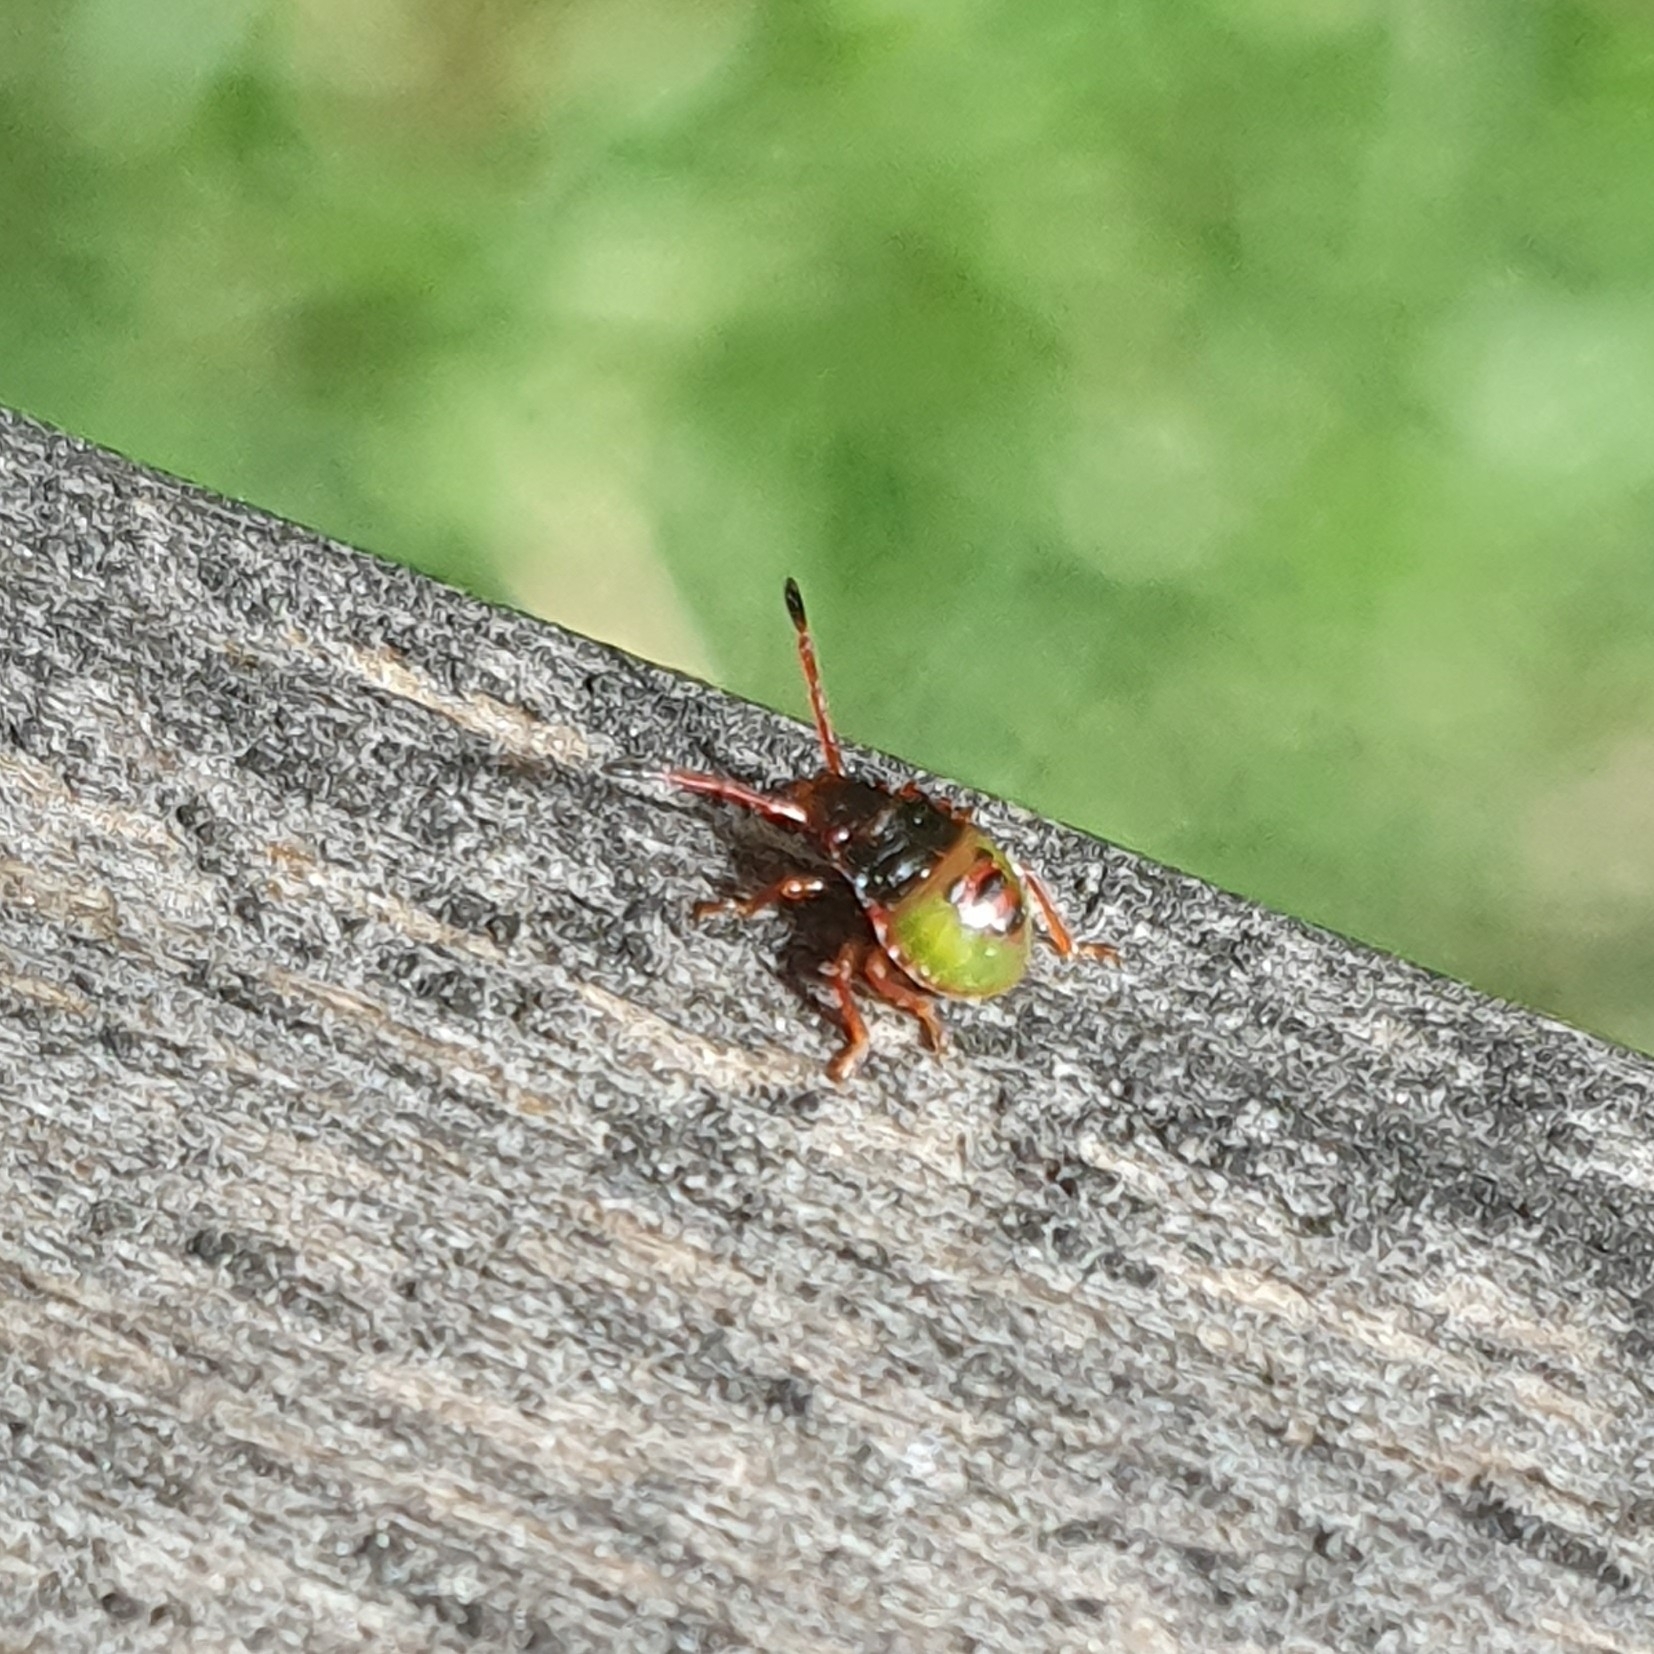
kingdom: Animalia
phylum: Arthropoda
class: Insecta
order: Hemiptera
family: Acanthosomatidae
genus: Acanthosoma
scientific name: Acanthosoma haemorrhoidale
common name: Hawthorn shieldbug
